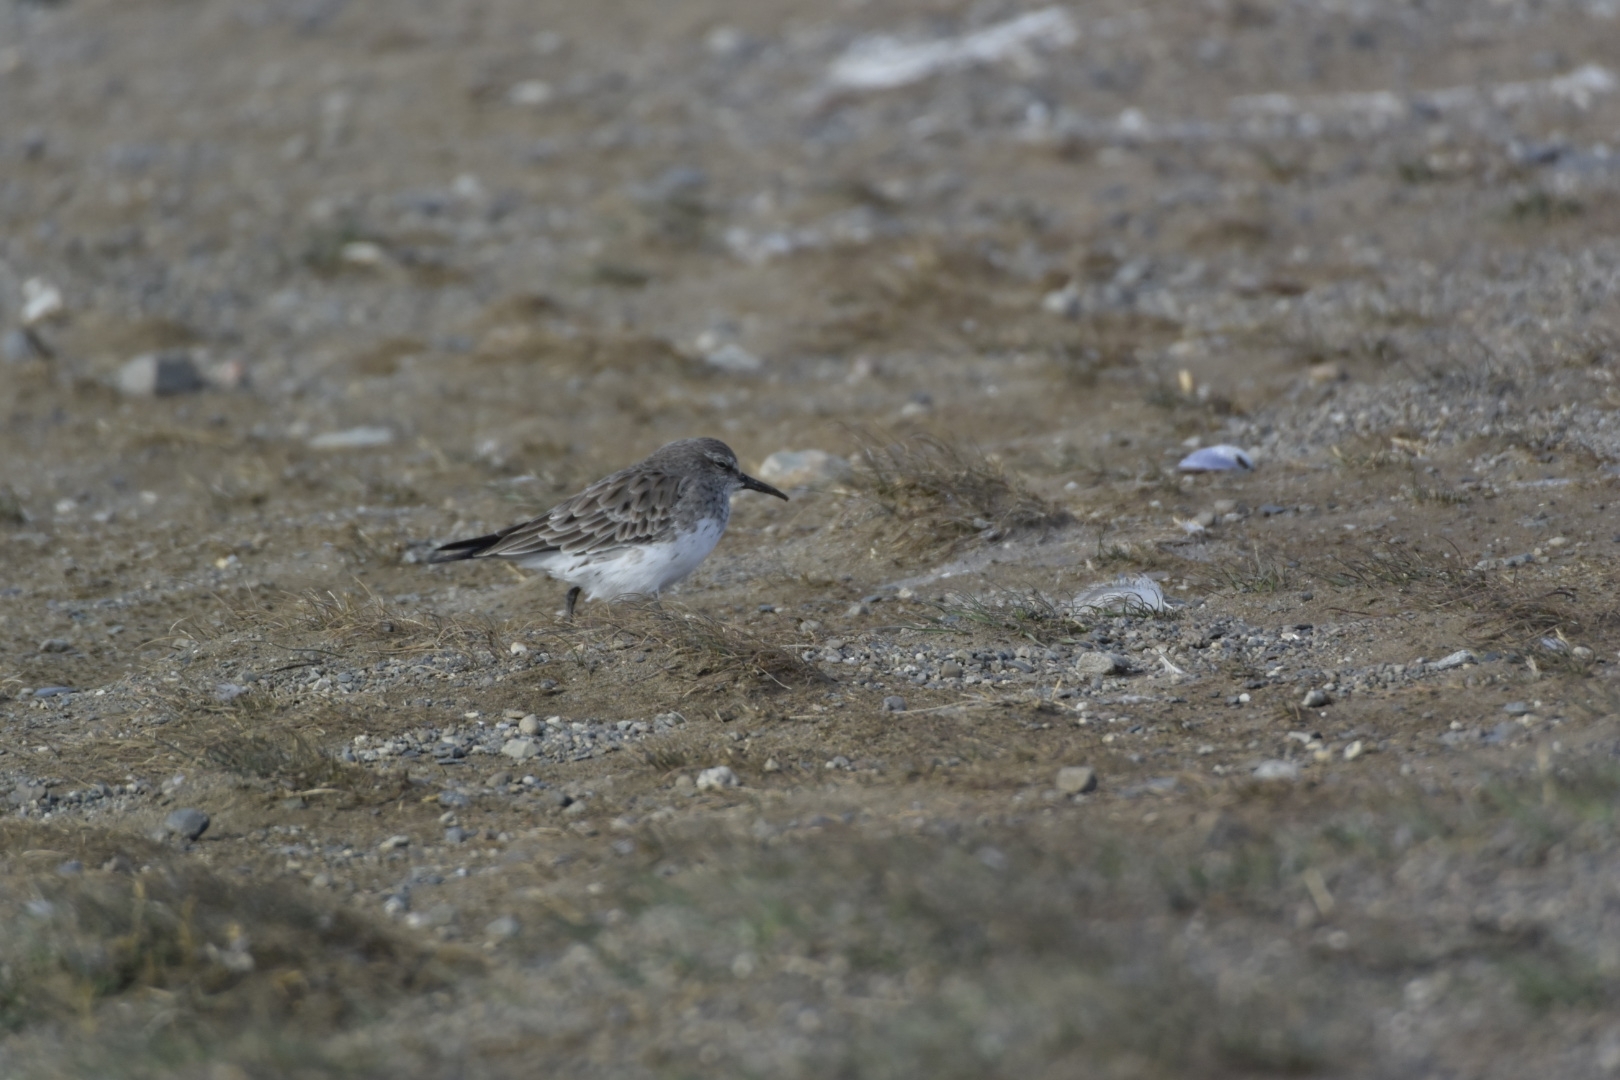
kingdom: Animalia
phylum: Chordata
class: Aves
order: Charadriiformes
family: Scolopacidae
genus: Calidris
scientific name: Calidris fuscicollis
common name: White-rumped sandpiper
